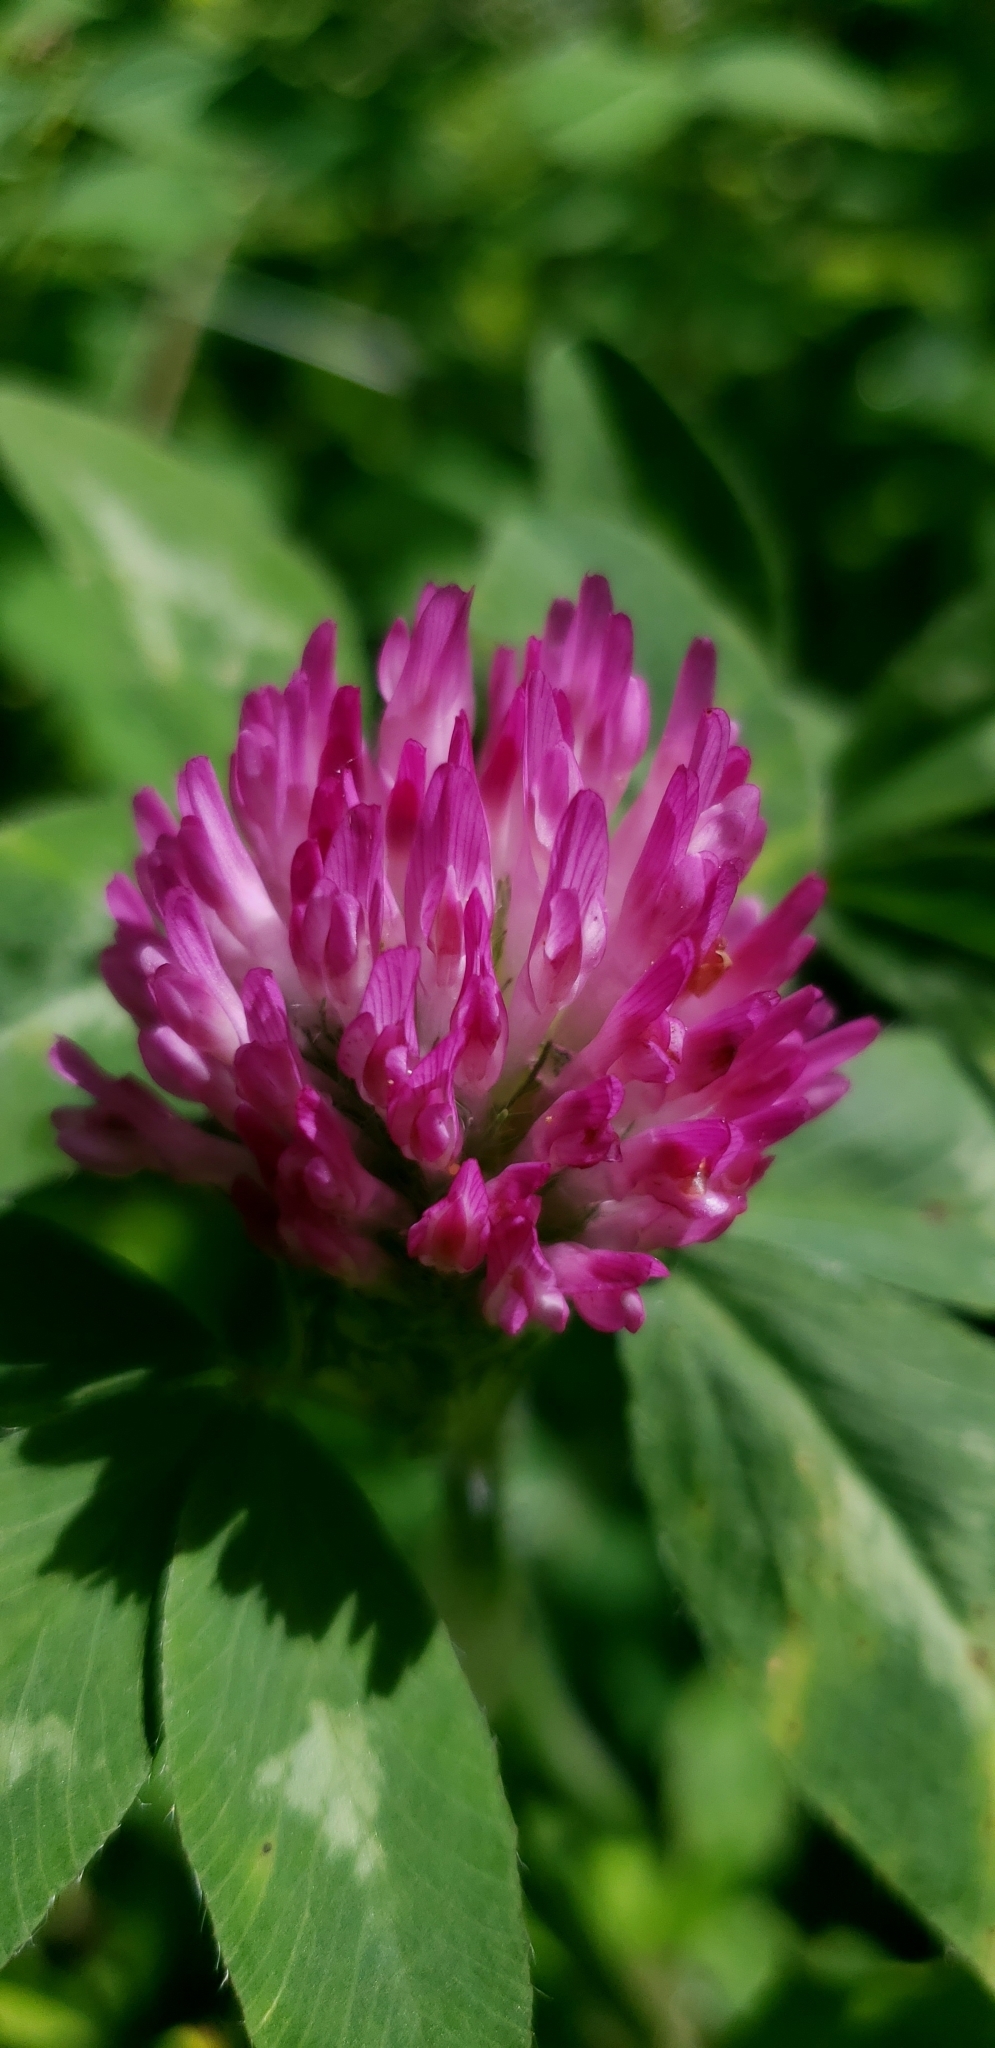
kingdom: Plantae
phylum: Tracheophyta
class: Magnoliopsida
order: Fabales
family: Fabaceae
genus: Trifolium
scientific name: Trifolium pratense
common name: Red clover
